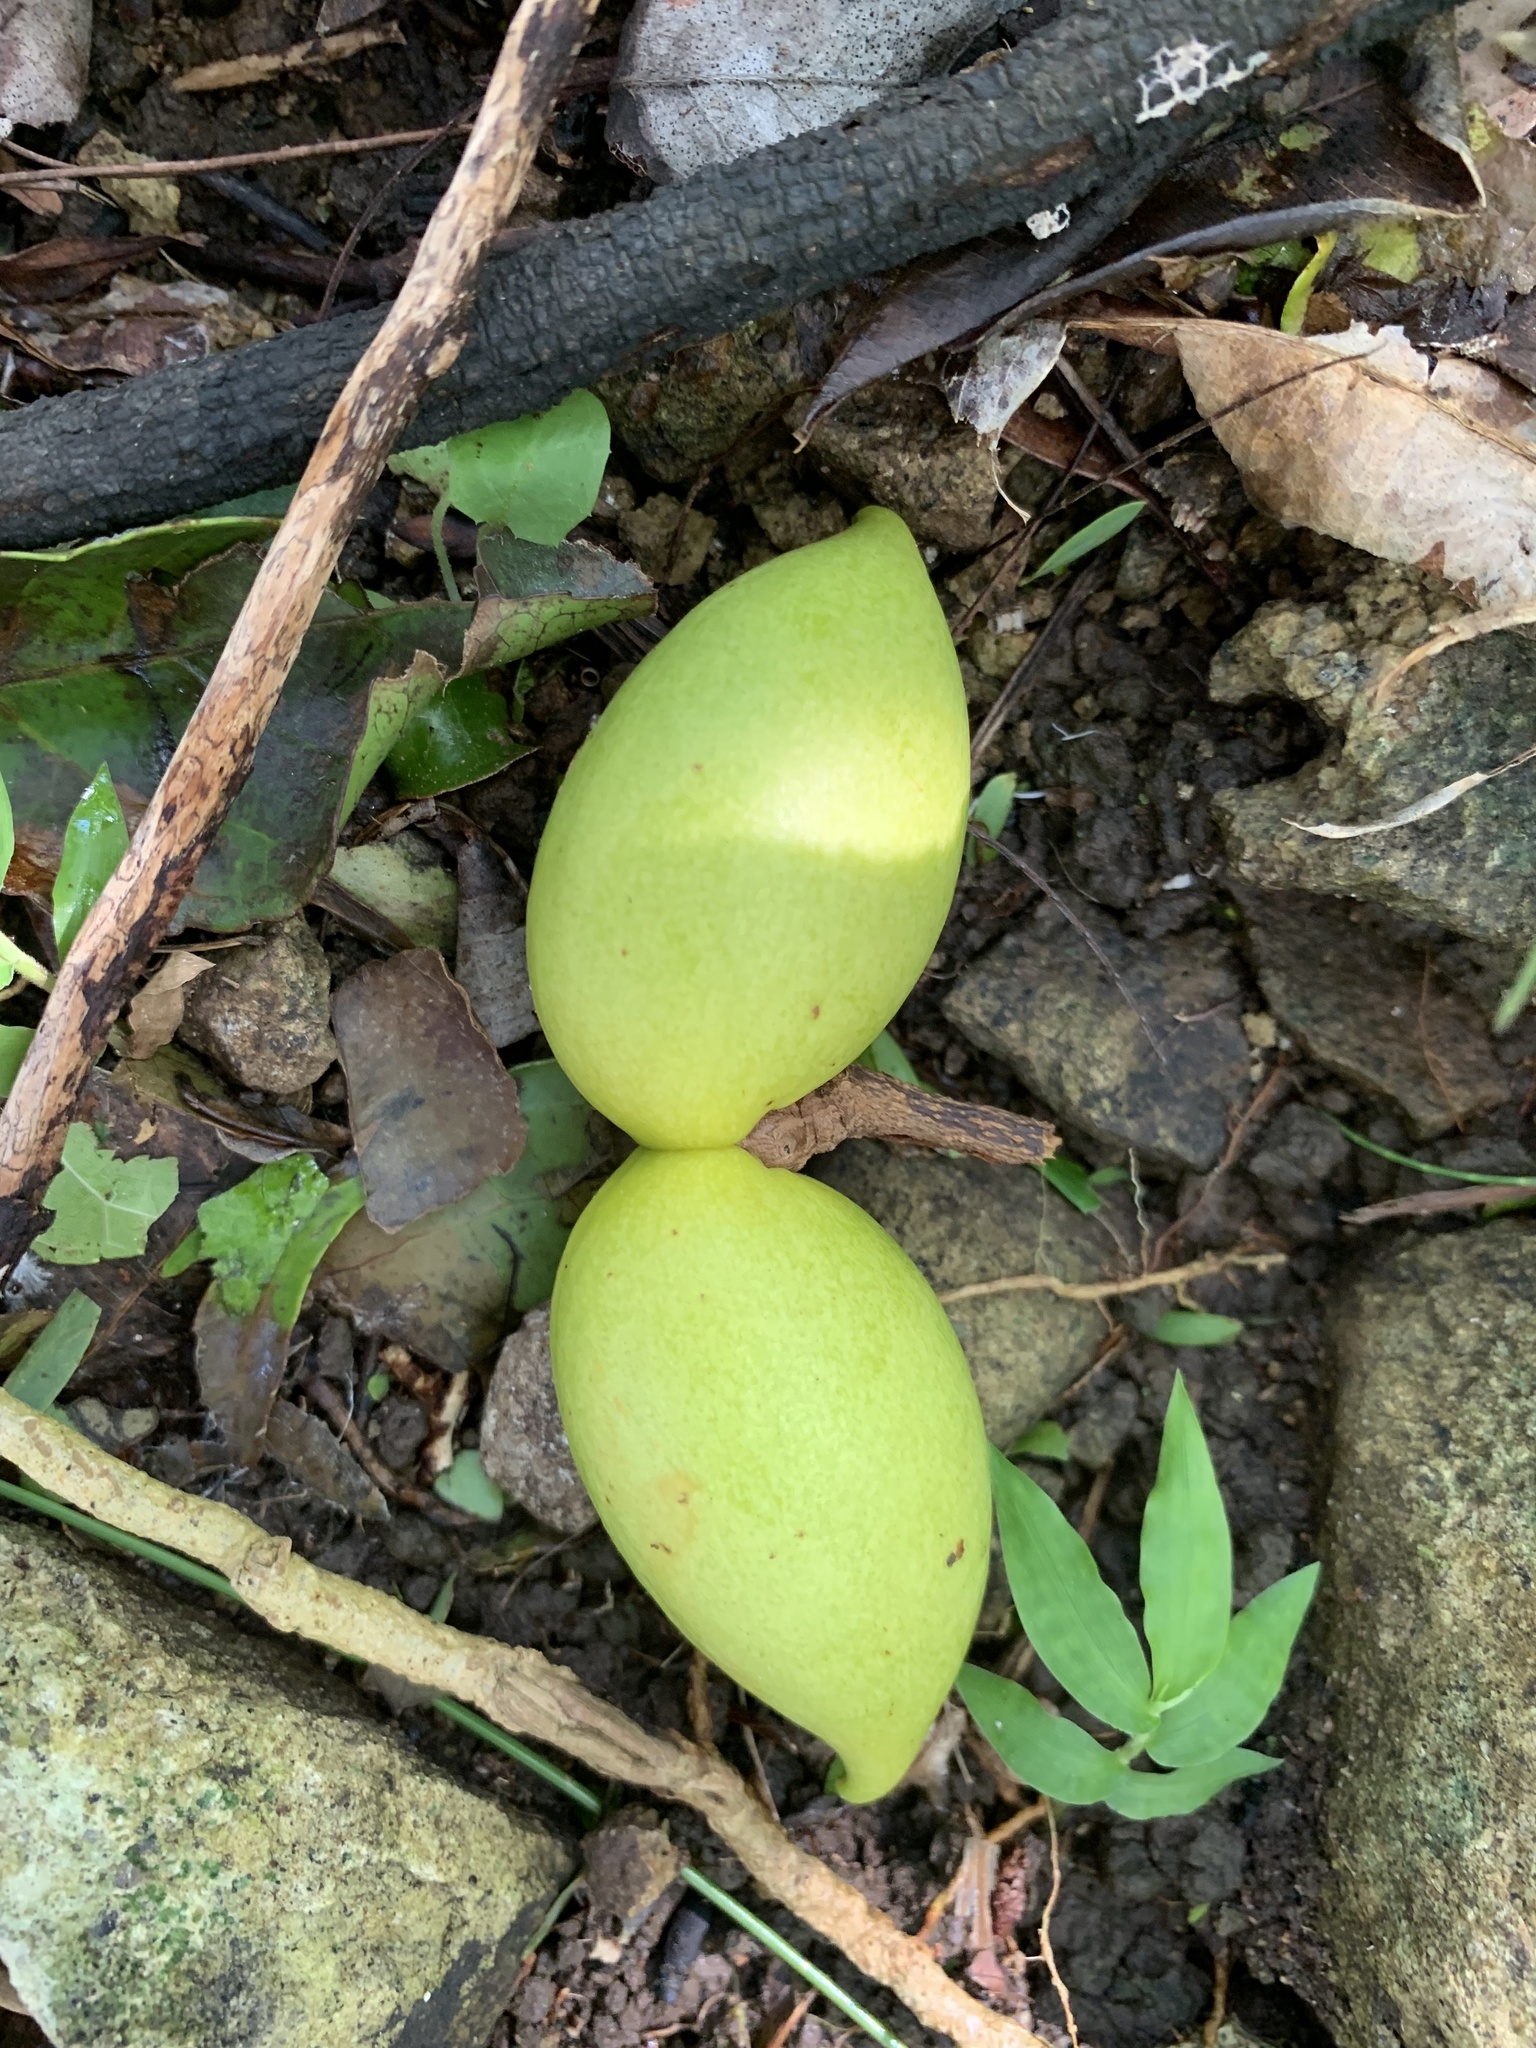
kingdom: Plantae
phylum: Tracheophyta
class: Magnoliopsida
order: Gentianales
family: Apocynaceae
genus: Ochrosia
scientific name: Ochrosia nakaiana
